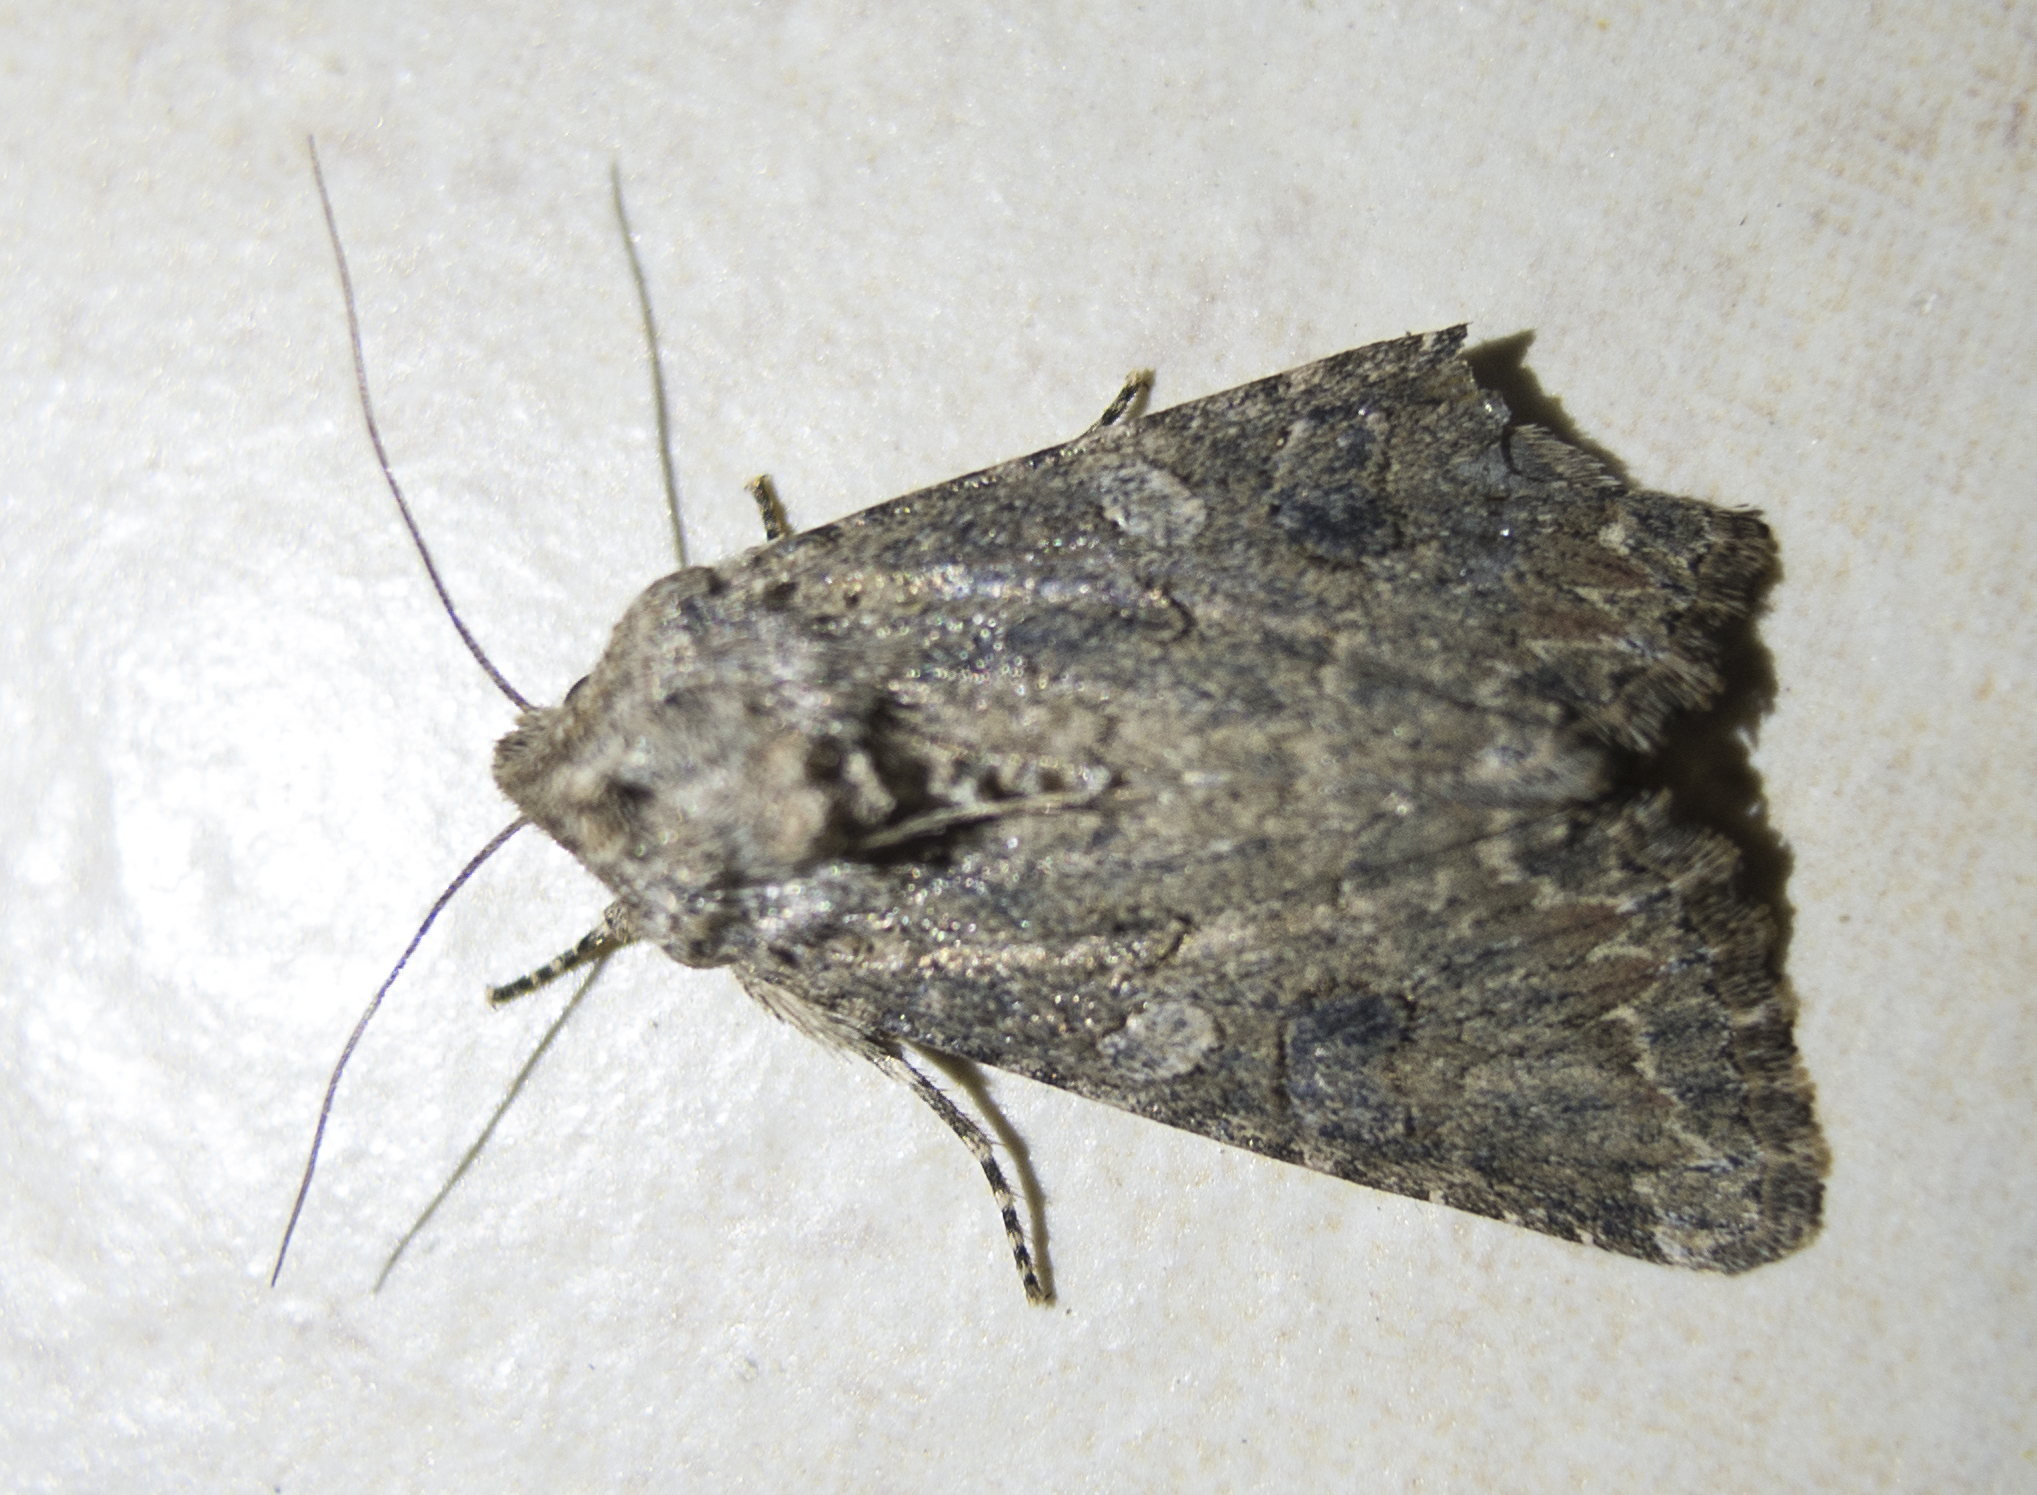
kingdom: Animalia
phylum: Arthropoda
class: Insecta
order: Lepidoptera
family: Noctuidae
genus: Anarta
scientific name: Anarta trifolii
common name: Clover cutworm moth
